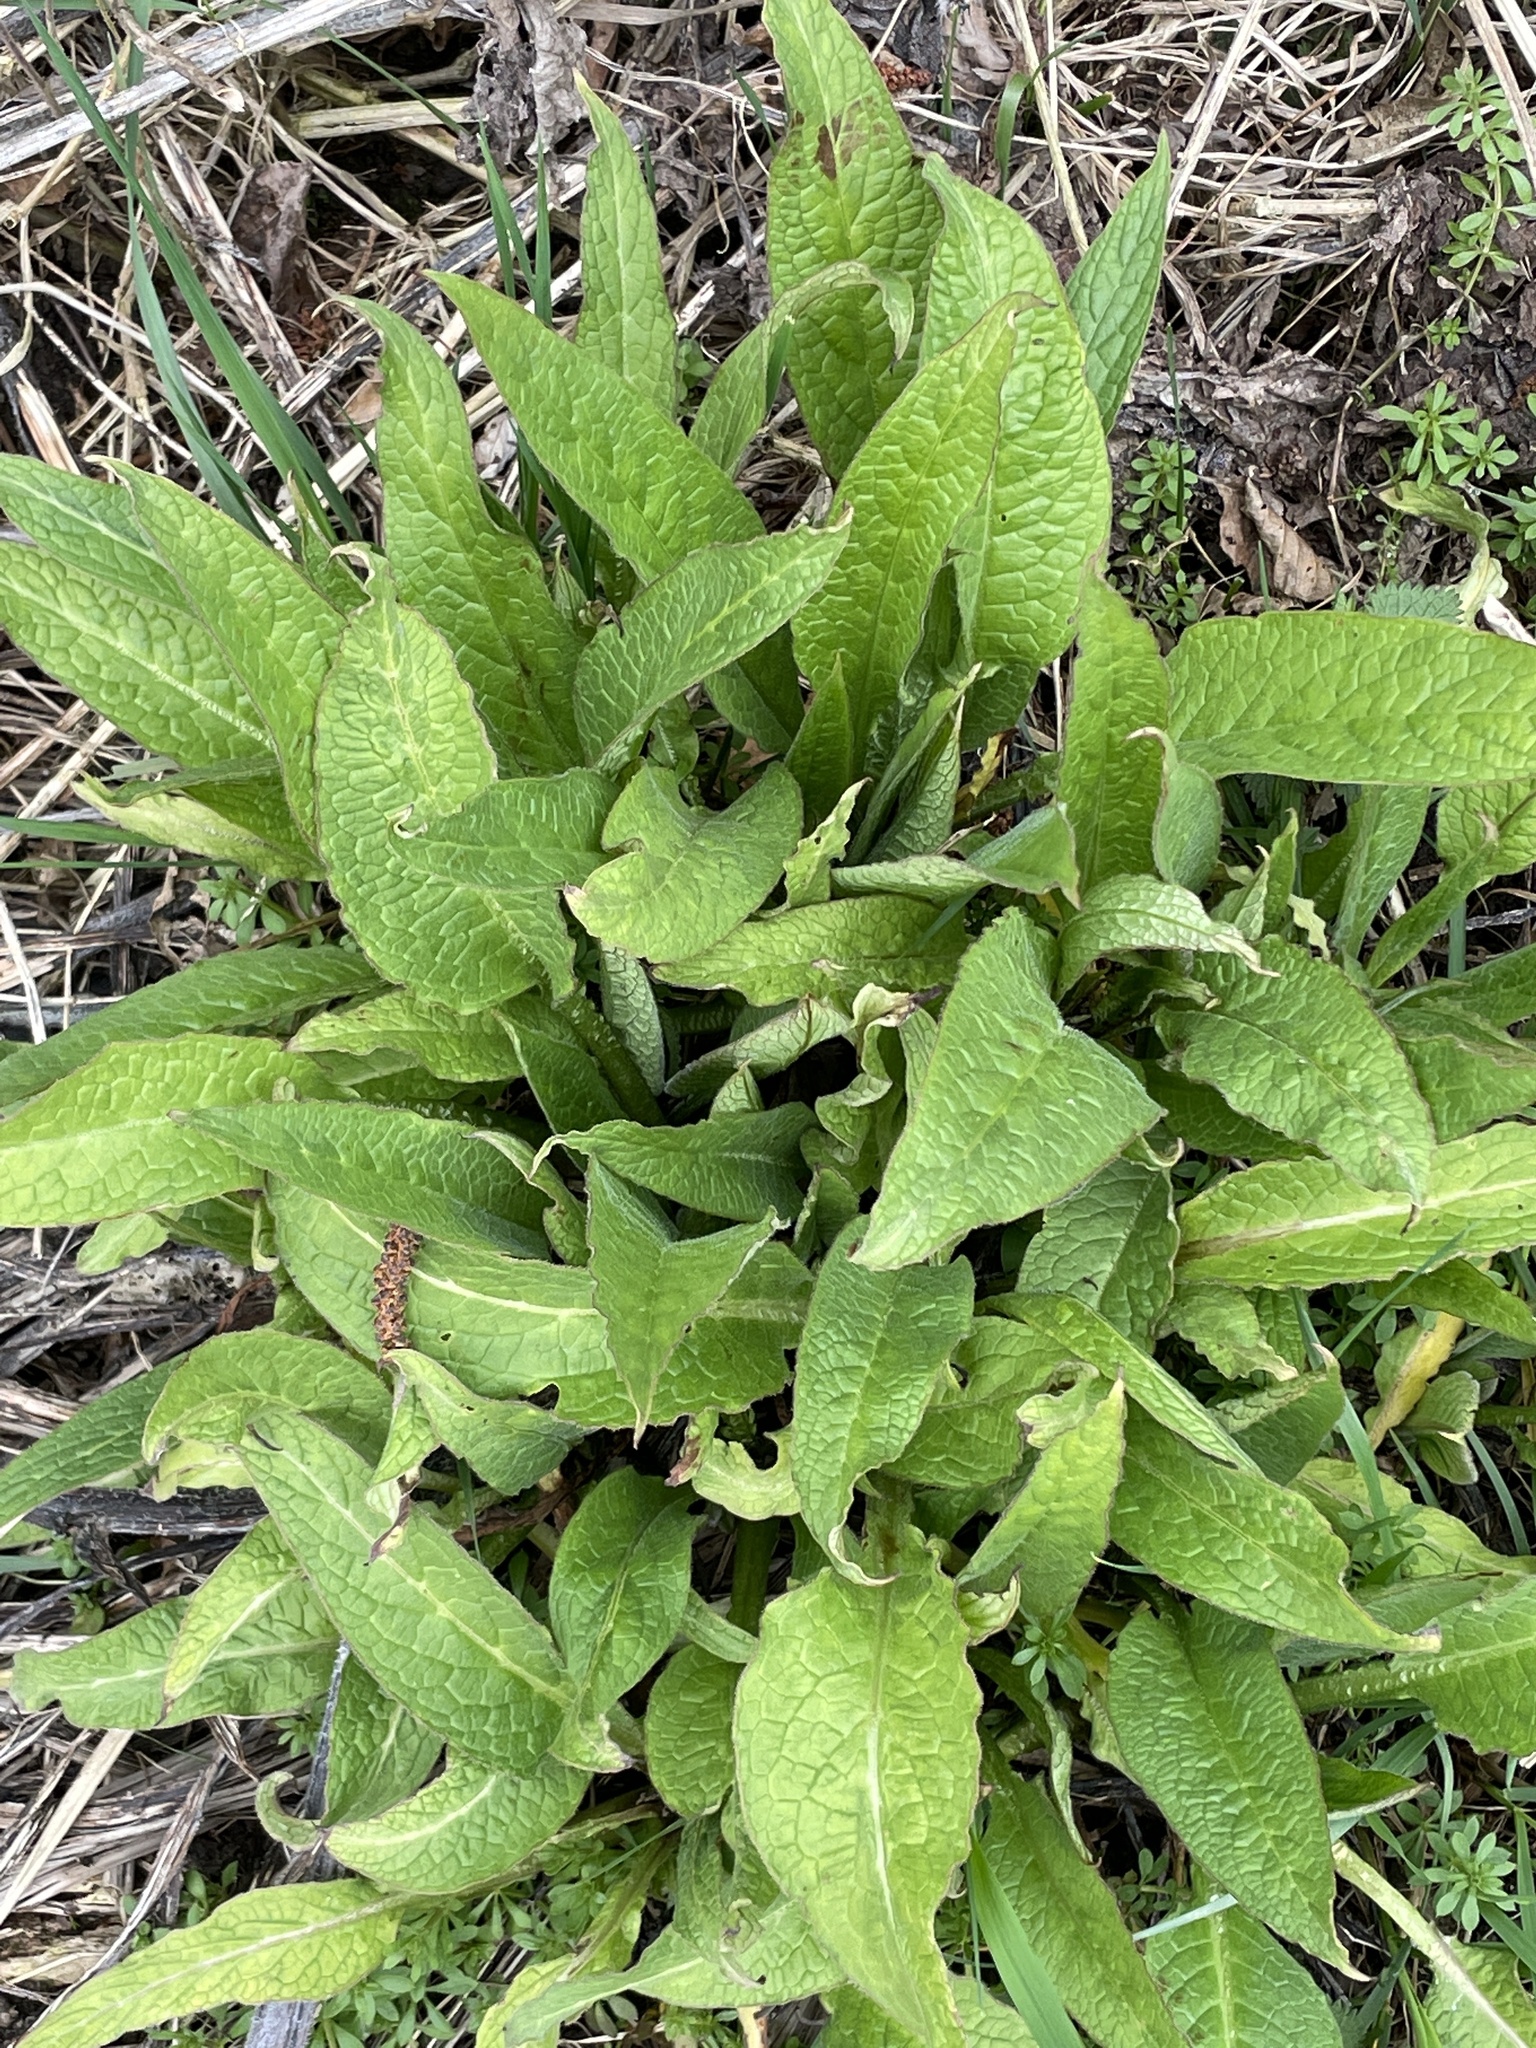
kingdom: Plantae
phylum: Tracheophyta
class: Magnoliopsida
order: Boraginales
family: Boraginaceae
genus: Symphytum
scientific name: Symphytum officinale
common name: Common comfrey
